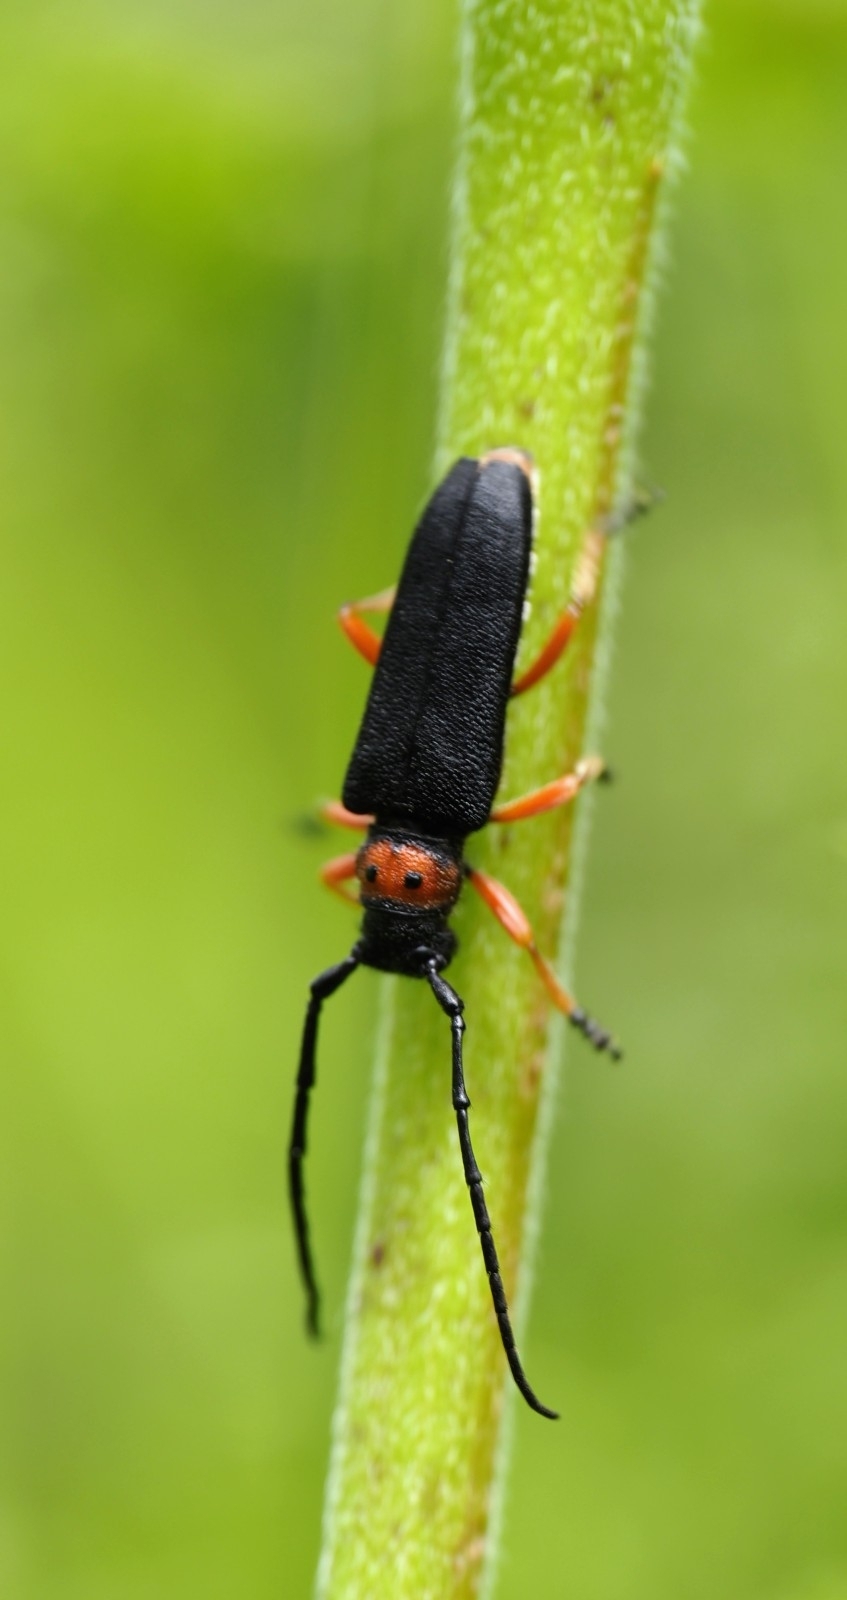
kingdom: Animalia
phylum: Arthropoda
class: Insecta
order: Coleoptera
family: Cerambycidae
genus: Phytoecia
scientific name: Phytoecia affinis
